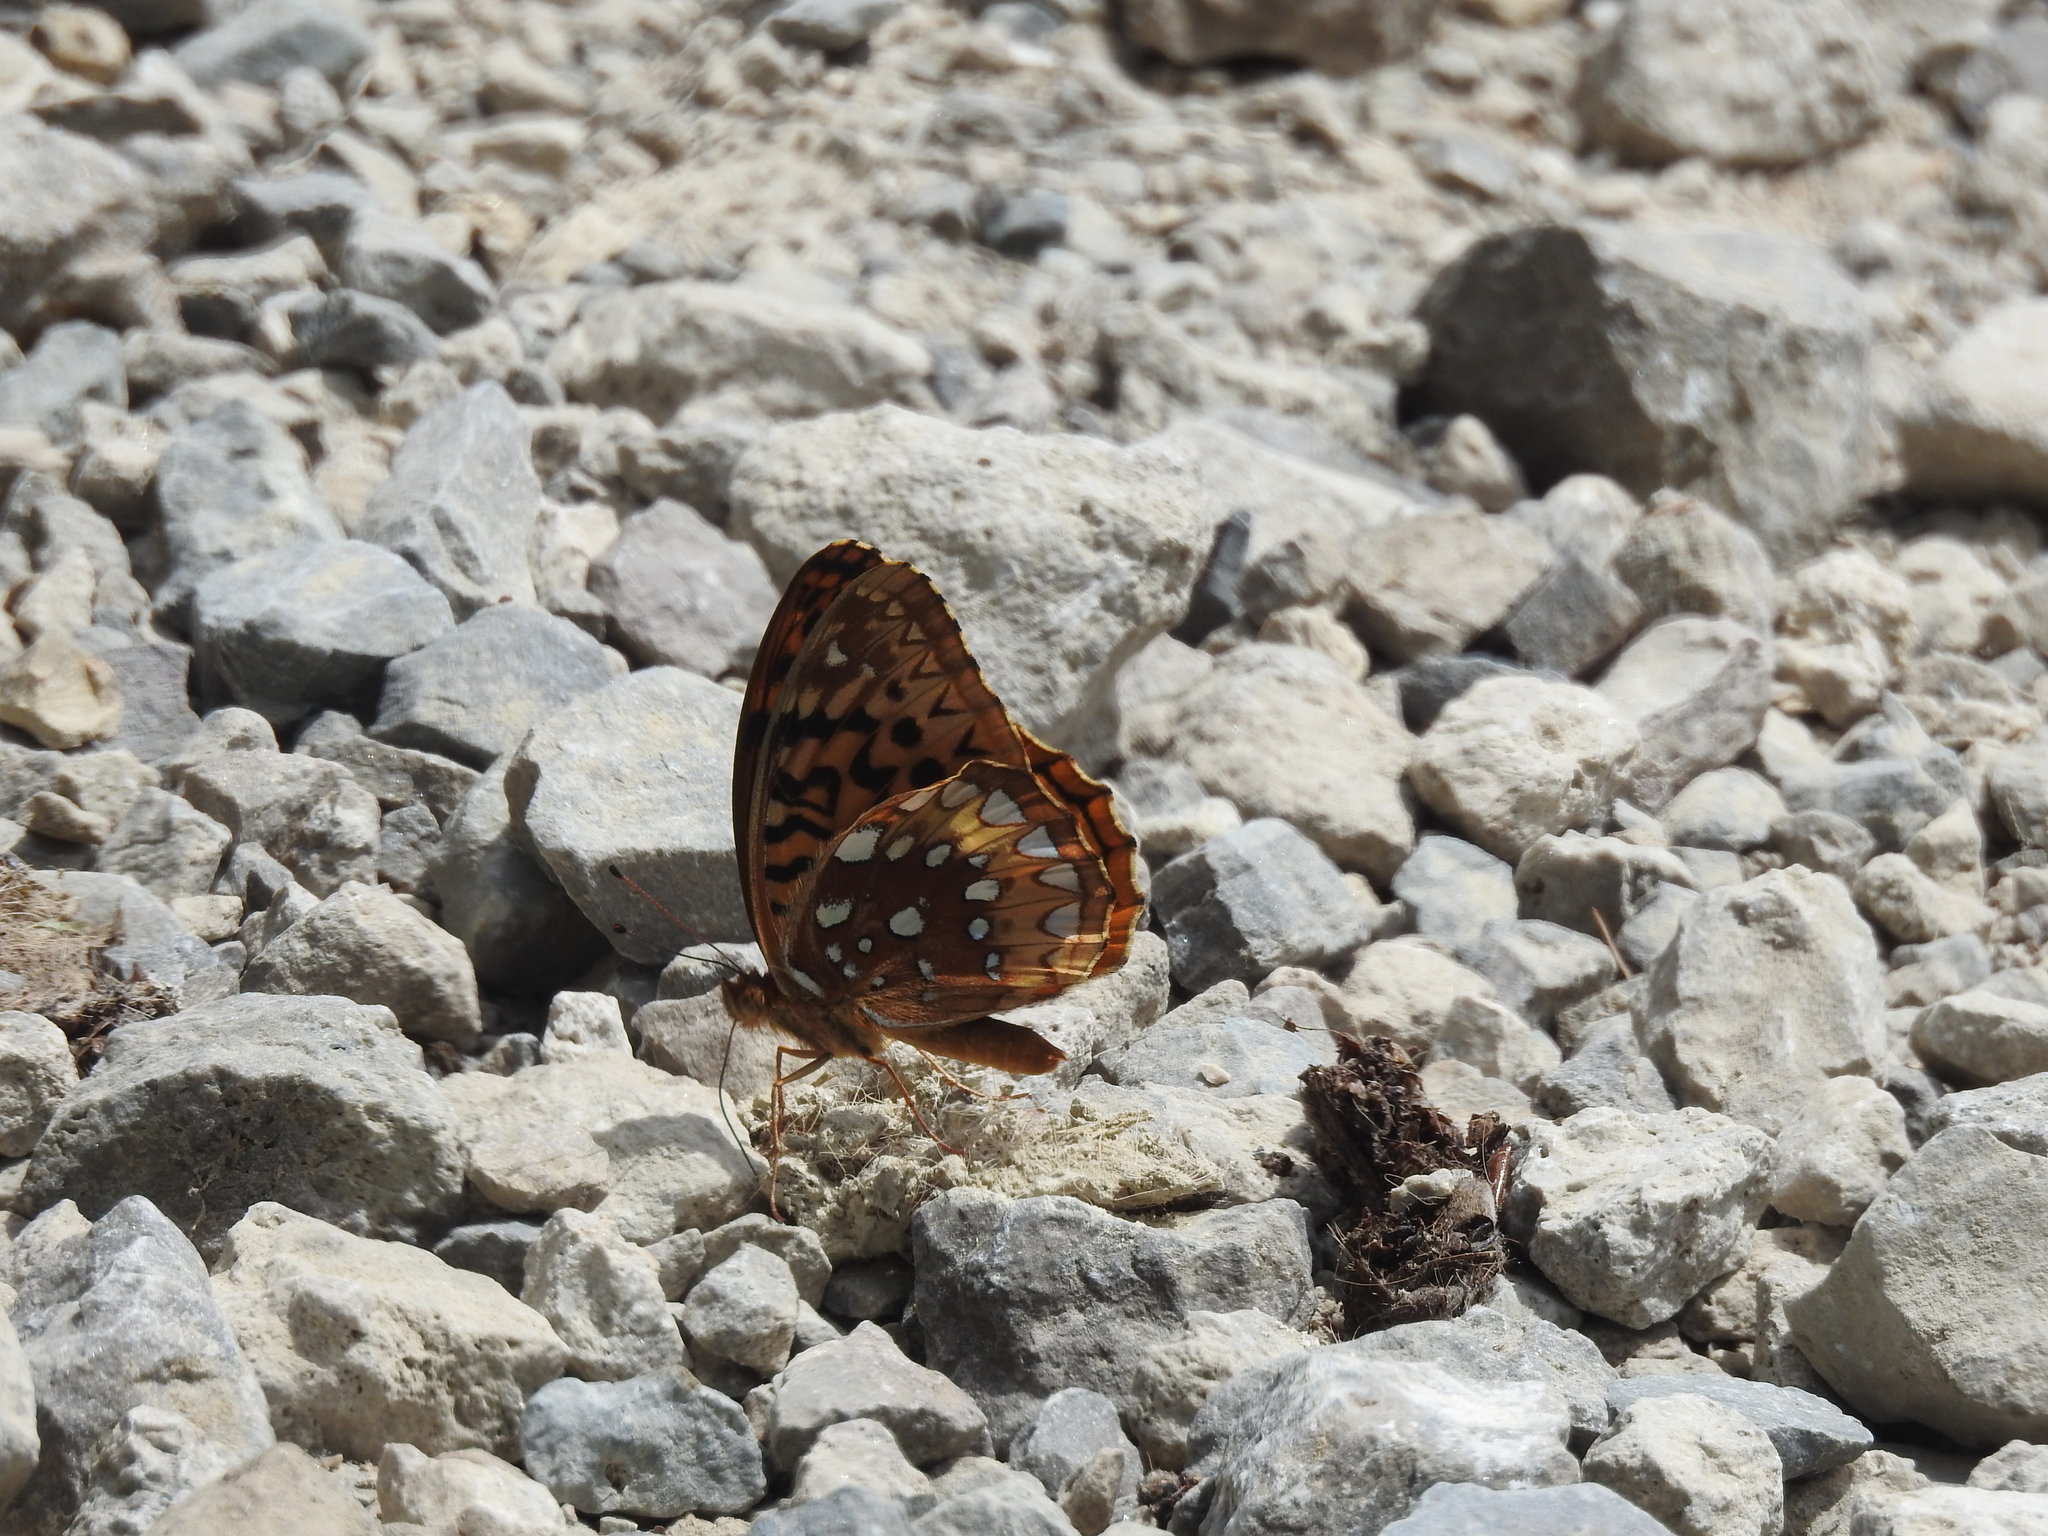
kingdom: Animalia
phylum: Arthropoda
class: Insecta
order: Lepidoptera
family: Nymphalidae
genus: Speyeria
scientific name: Speyeria cybele
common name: Great spangled fritillary
